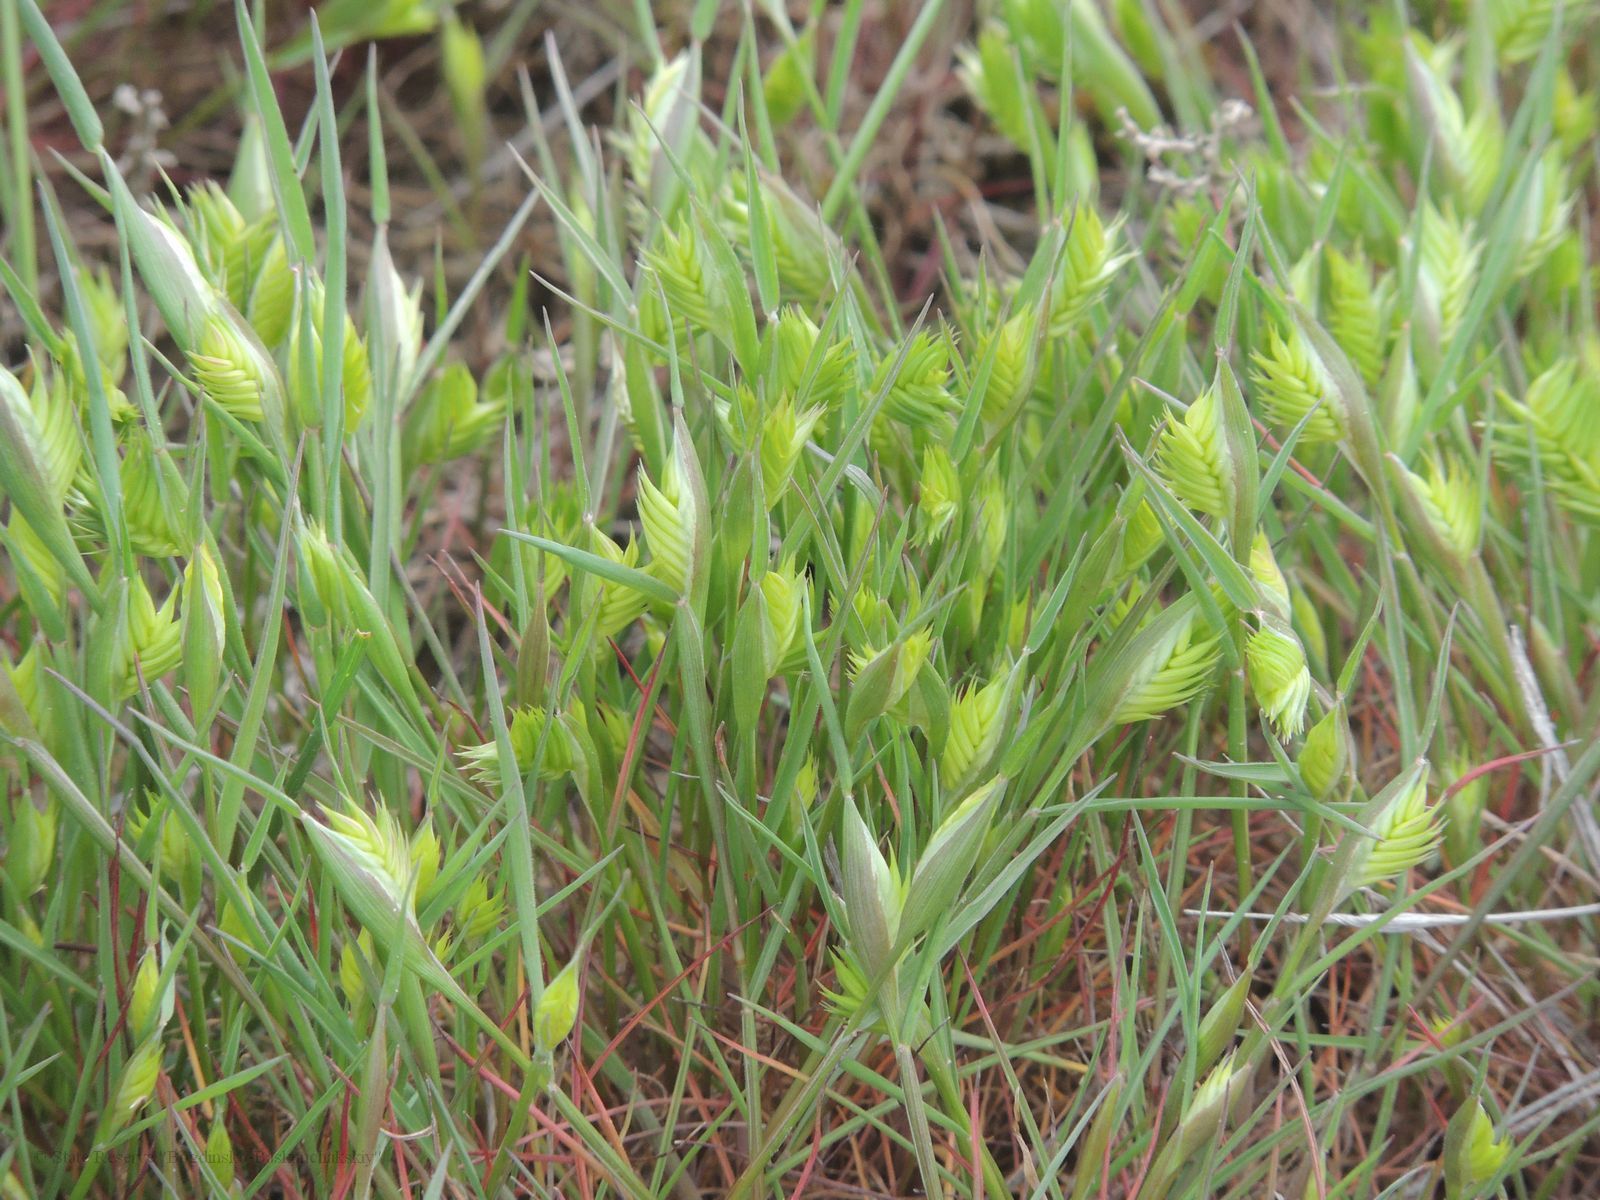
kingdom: Plantae
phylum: Tracheophyta
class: Liliopsida
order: Poales
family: Poaceae
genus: Eremopyrum
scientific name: Eremopyrum triticeum
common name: Annual wheatgrass
